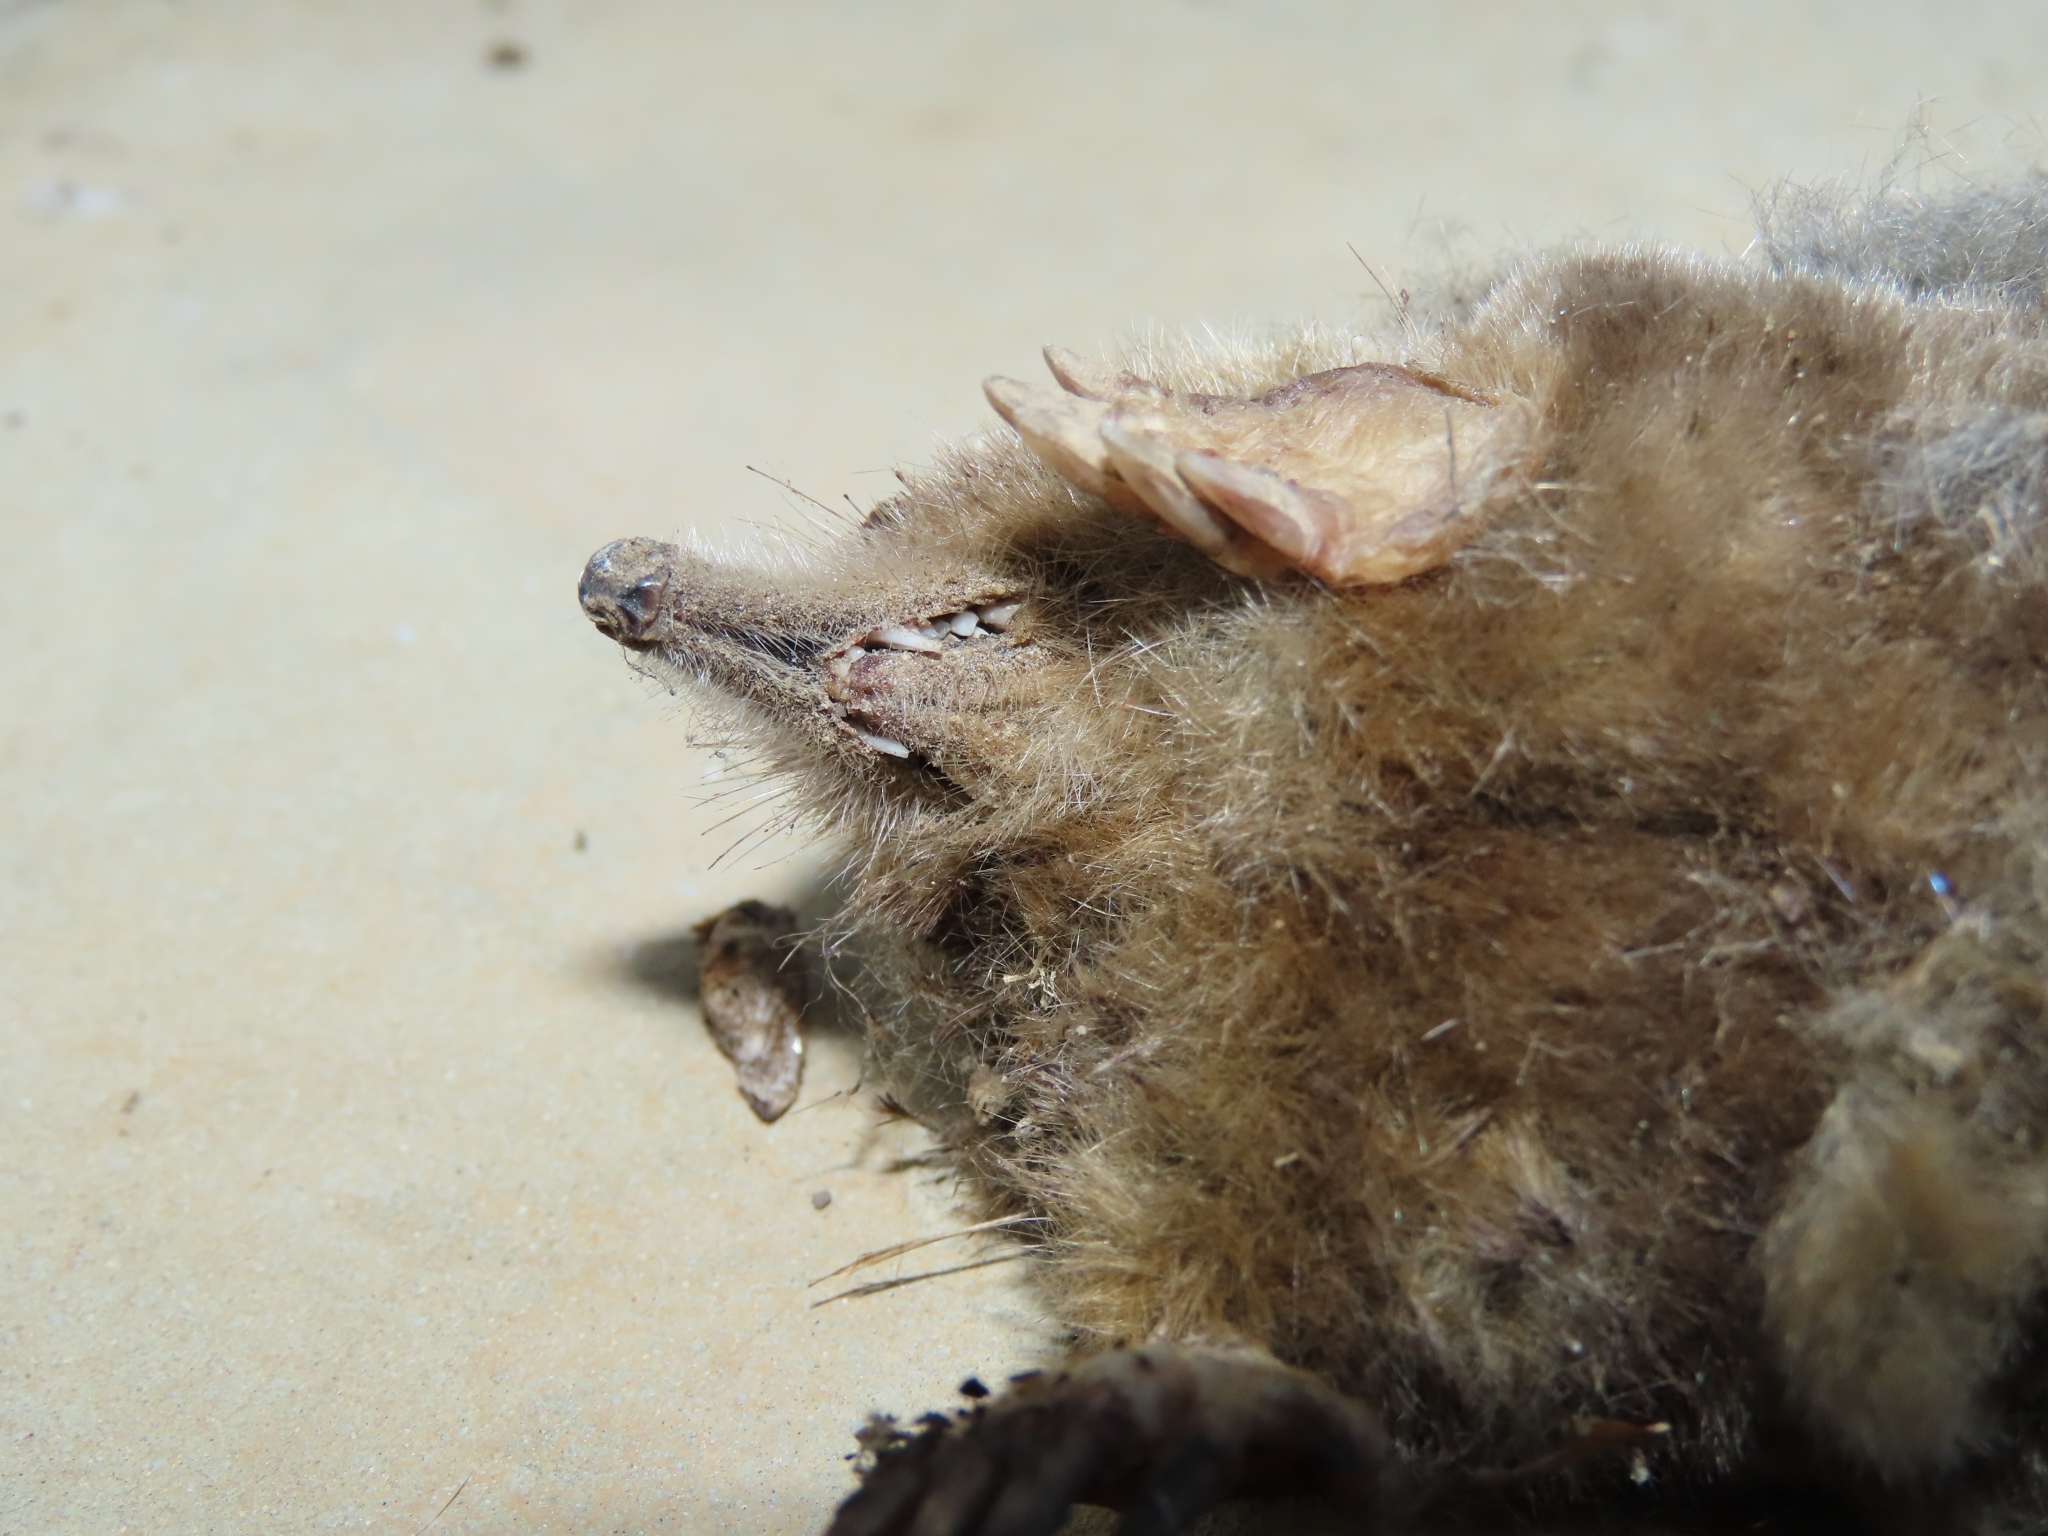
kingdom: Animalia
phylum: Chordata
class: Mammalia
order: Soricomorpha
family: Talpidae
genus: Mogera
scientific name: Mogera insularis
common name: Insular mole
